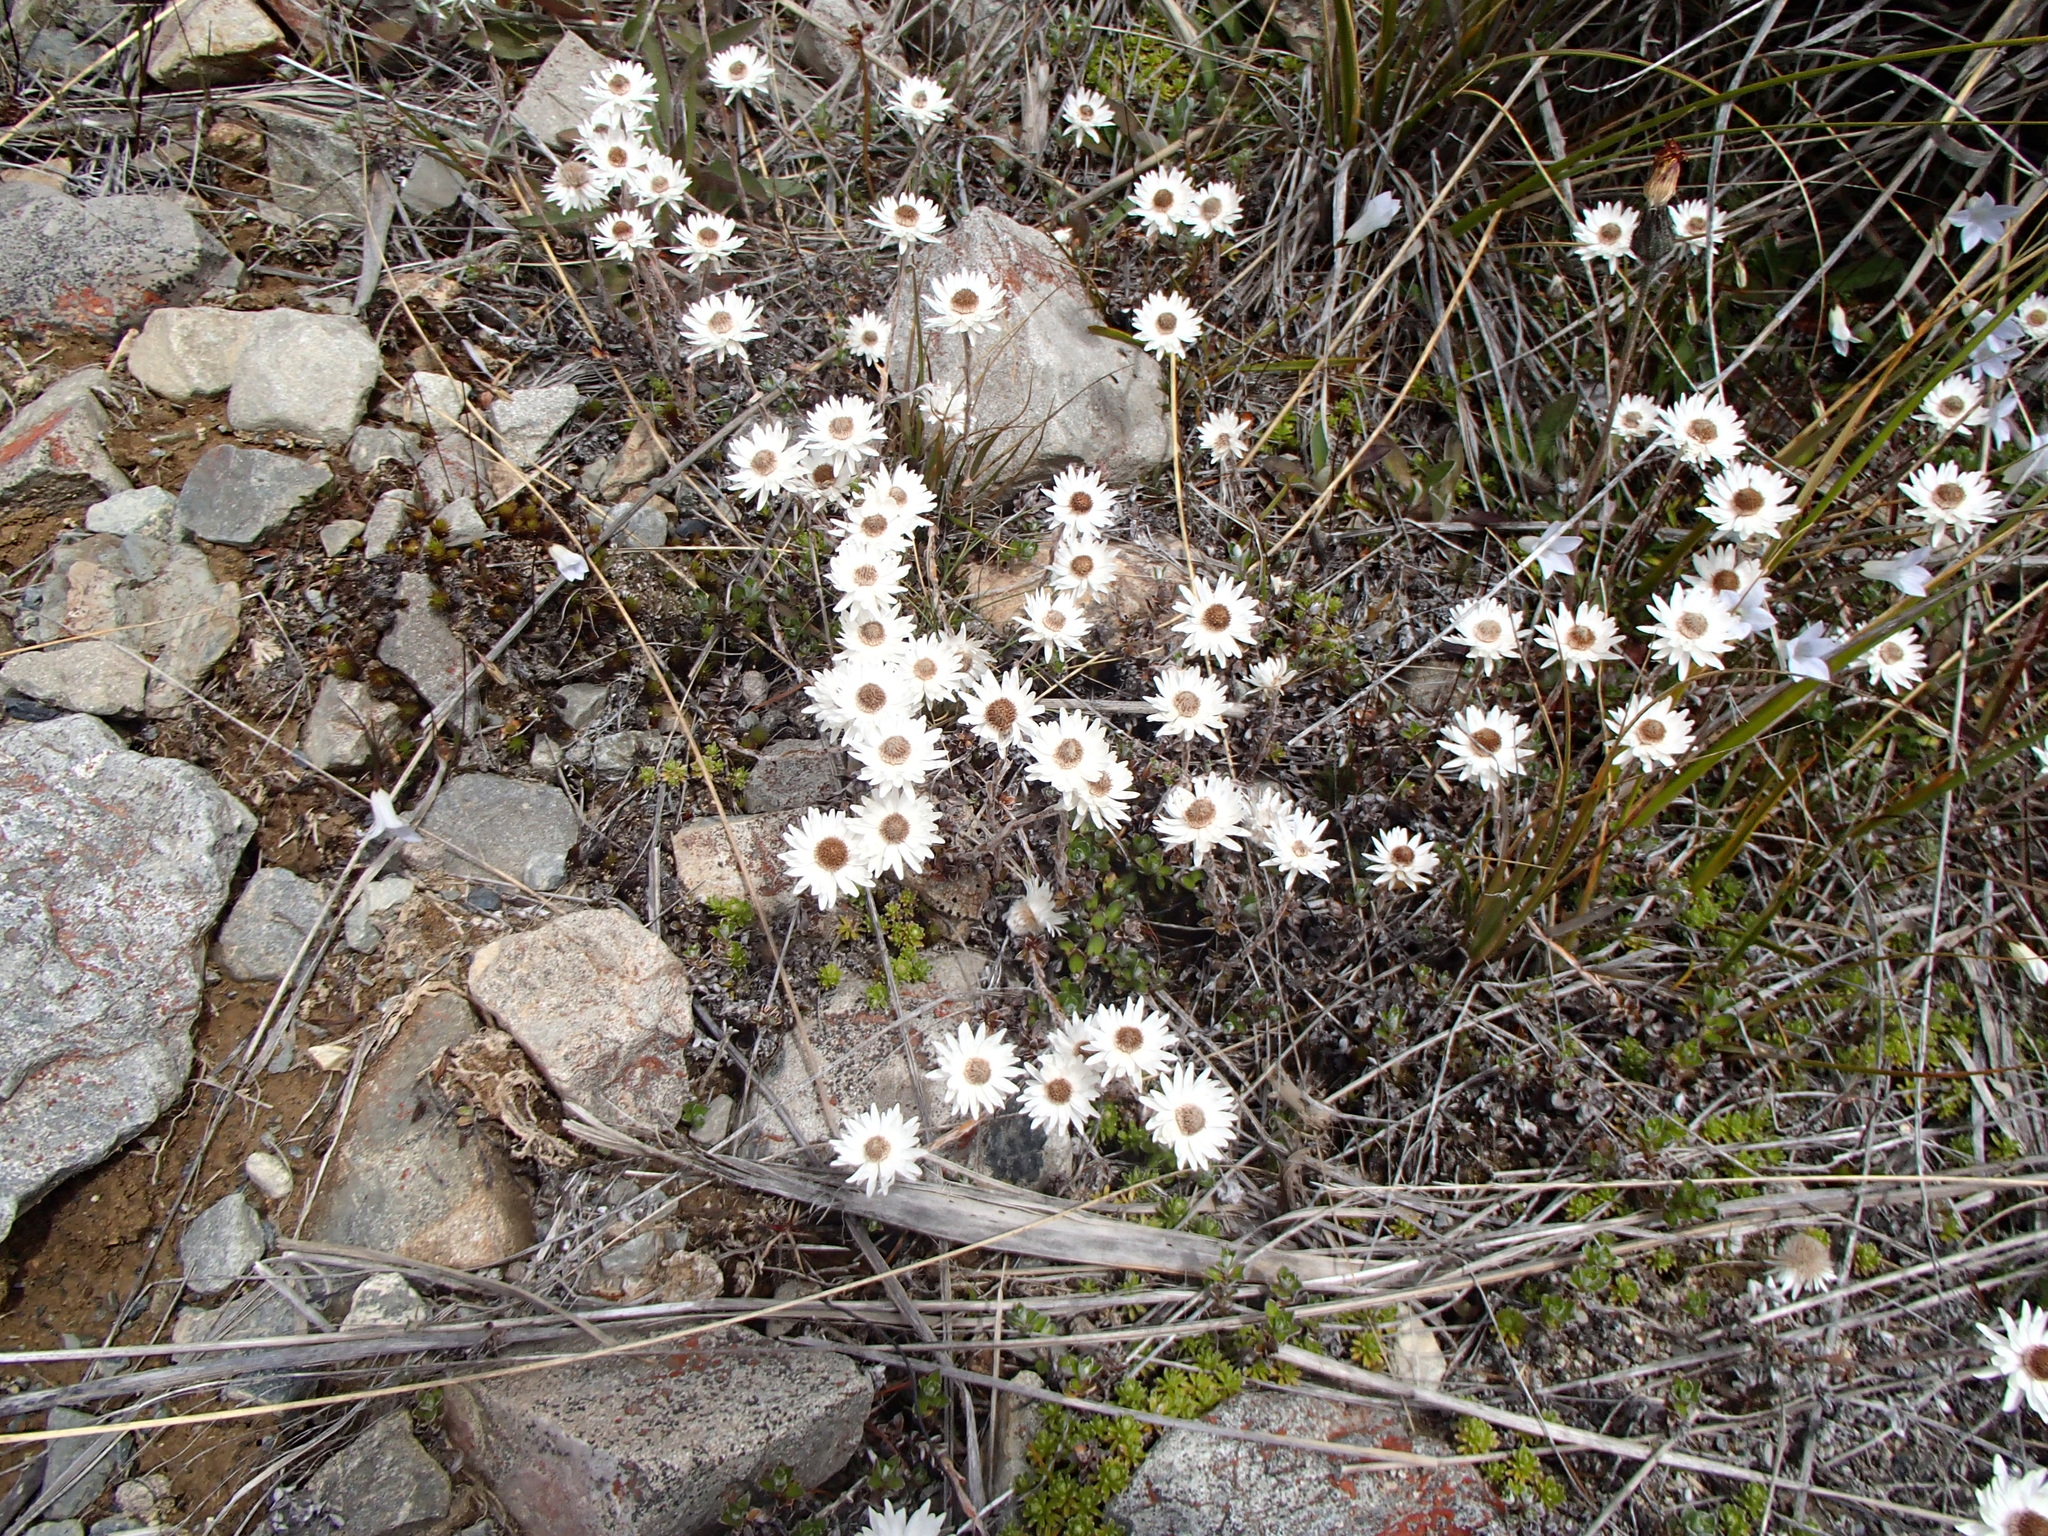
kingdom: Plantae
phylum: Tracheophyta
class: Magnoliopsida
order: Asterales
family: Asteraceae
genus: Anaphalioides
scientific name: Anaphalioides bellidioides
